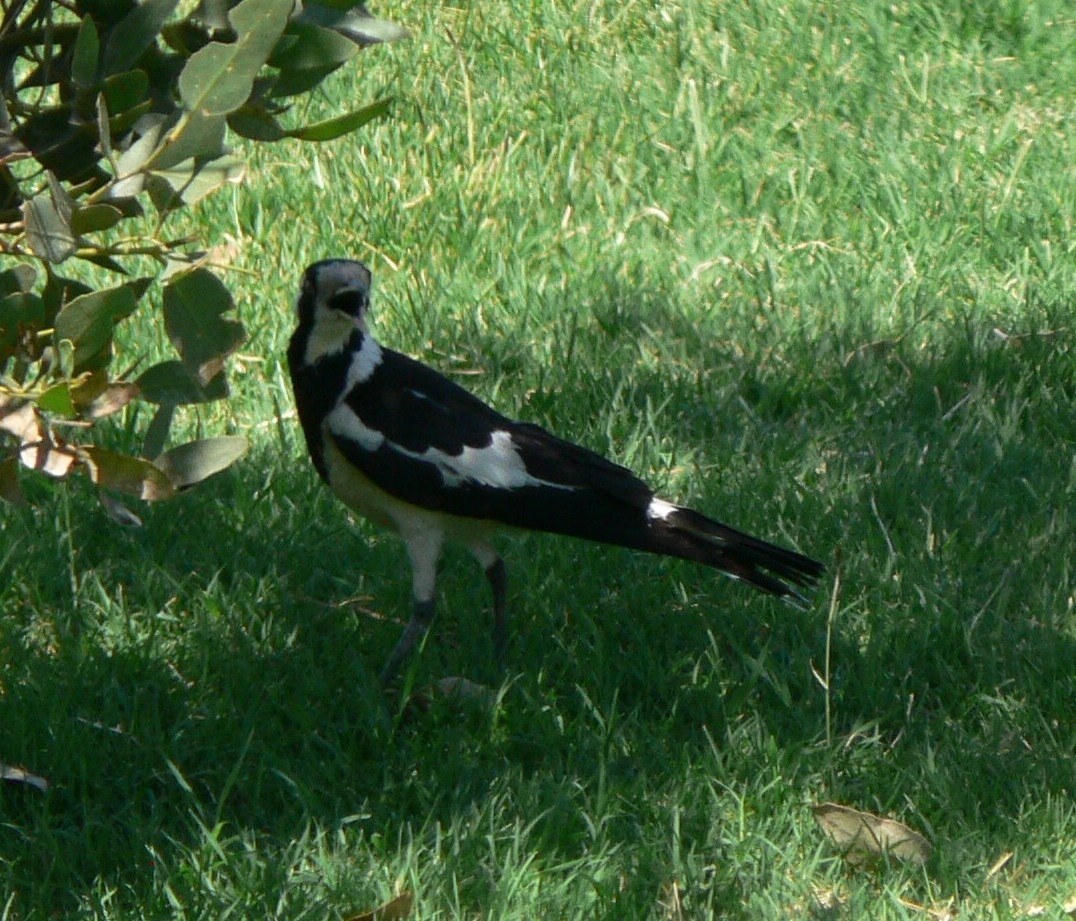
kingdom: Animalia
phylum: Chordata
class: Aves
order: Passeriformes
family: Monarchidae
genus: Grallina
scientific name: Grallina cyanoleuca
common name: Magpie-lark
